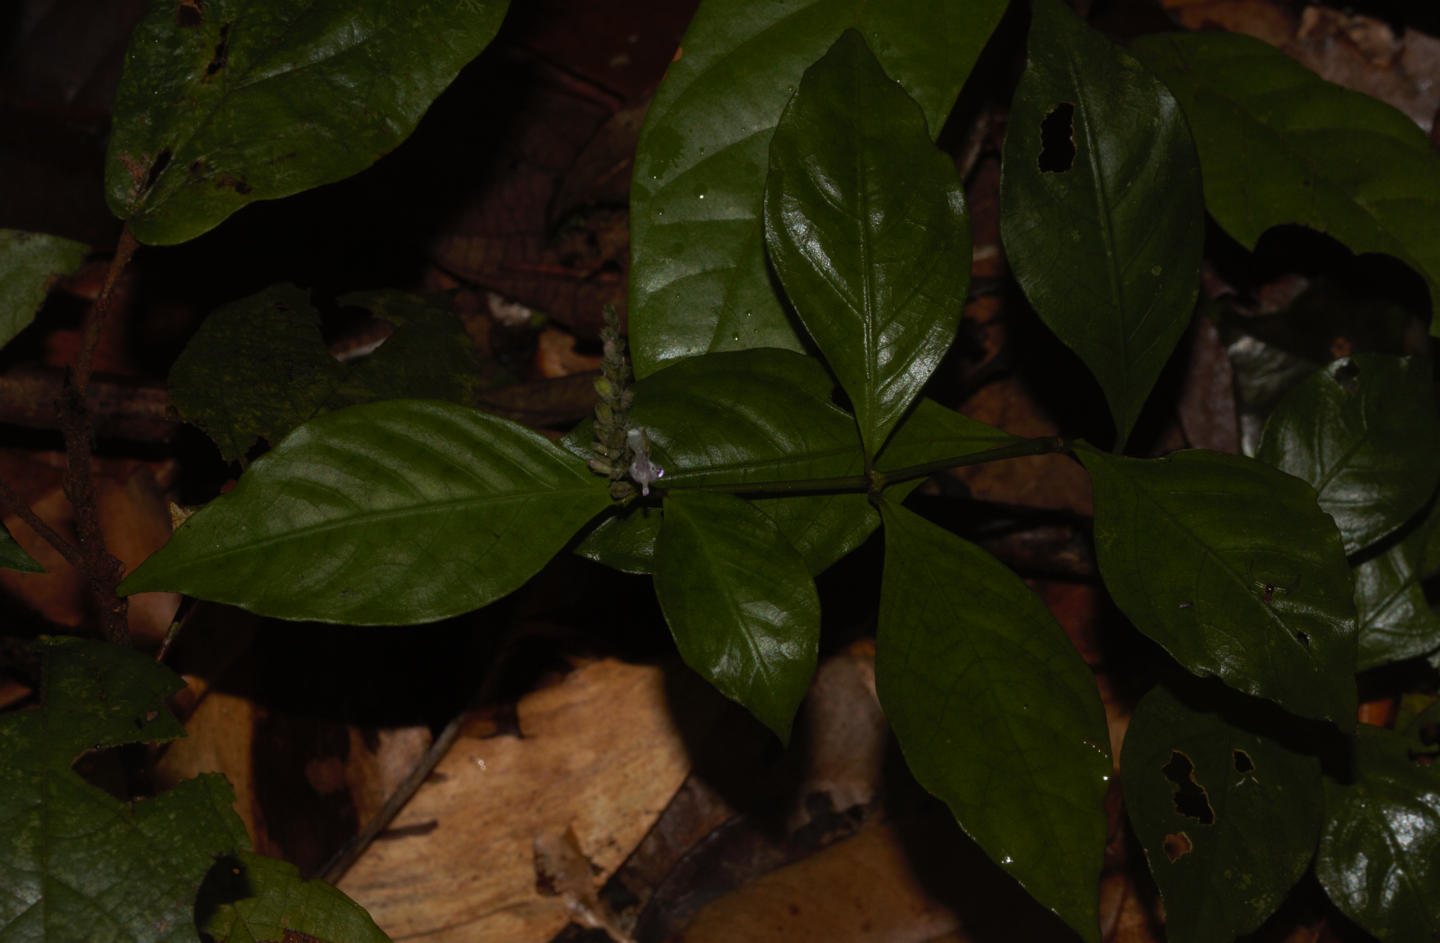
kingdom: Plantae
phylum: Tracheophyta
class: Magnoliopsida
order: Lamiales
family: Acanthaceae
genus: Justicia
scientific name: Justicia prevostiae
